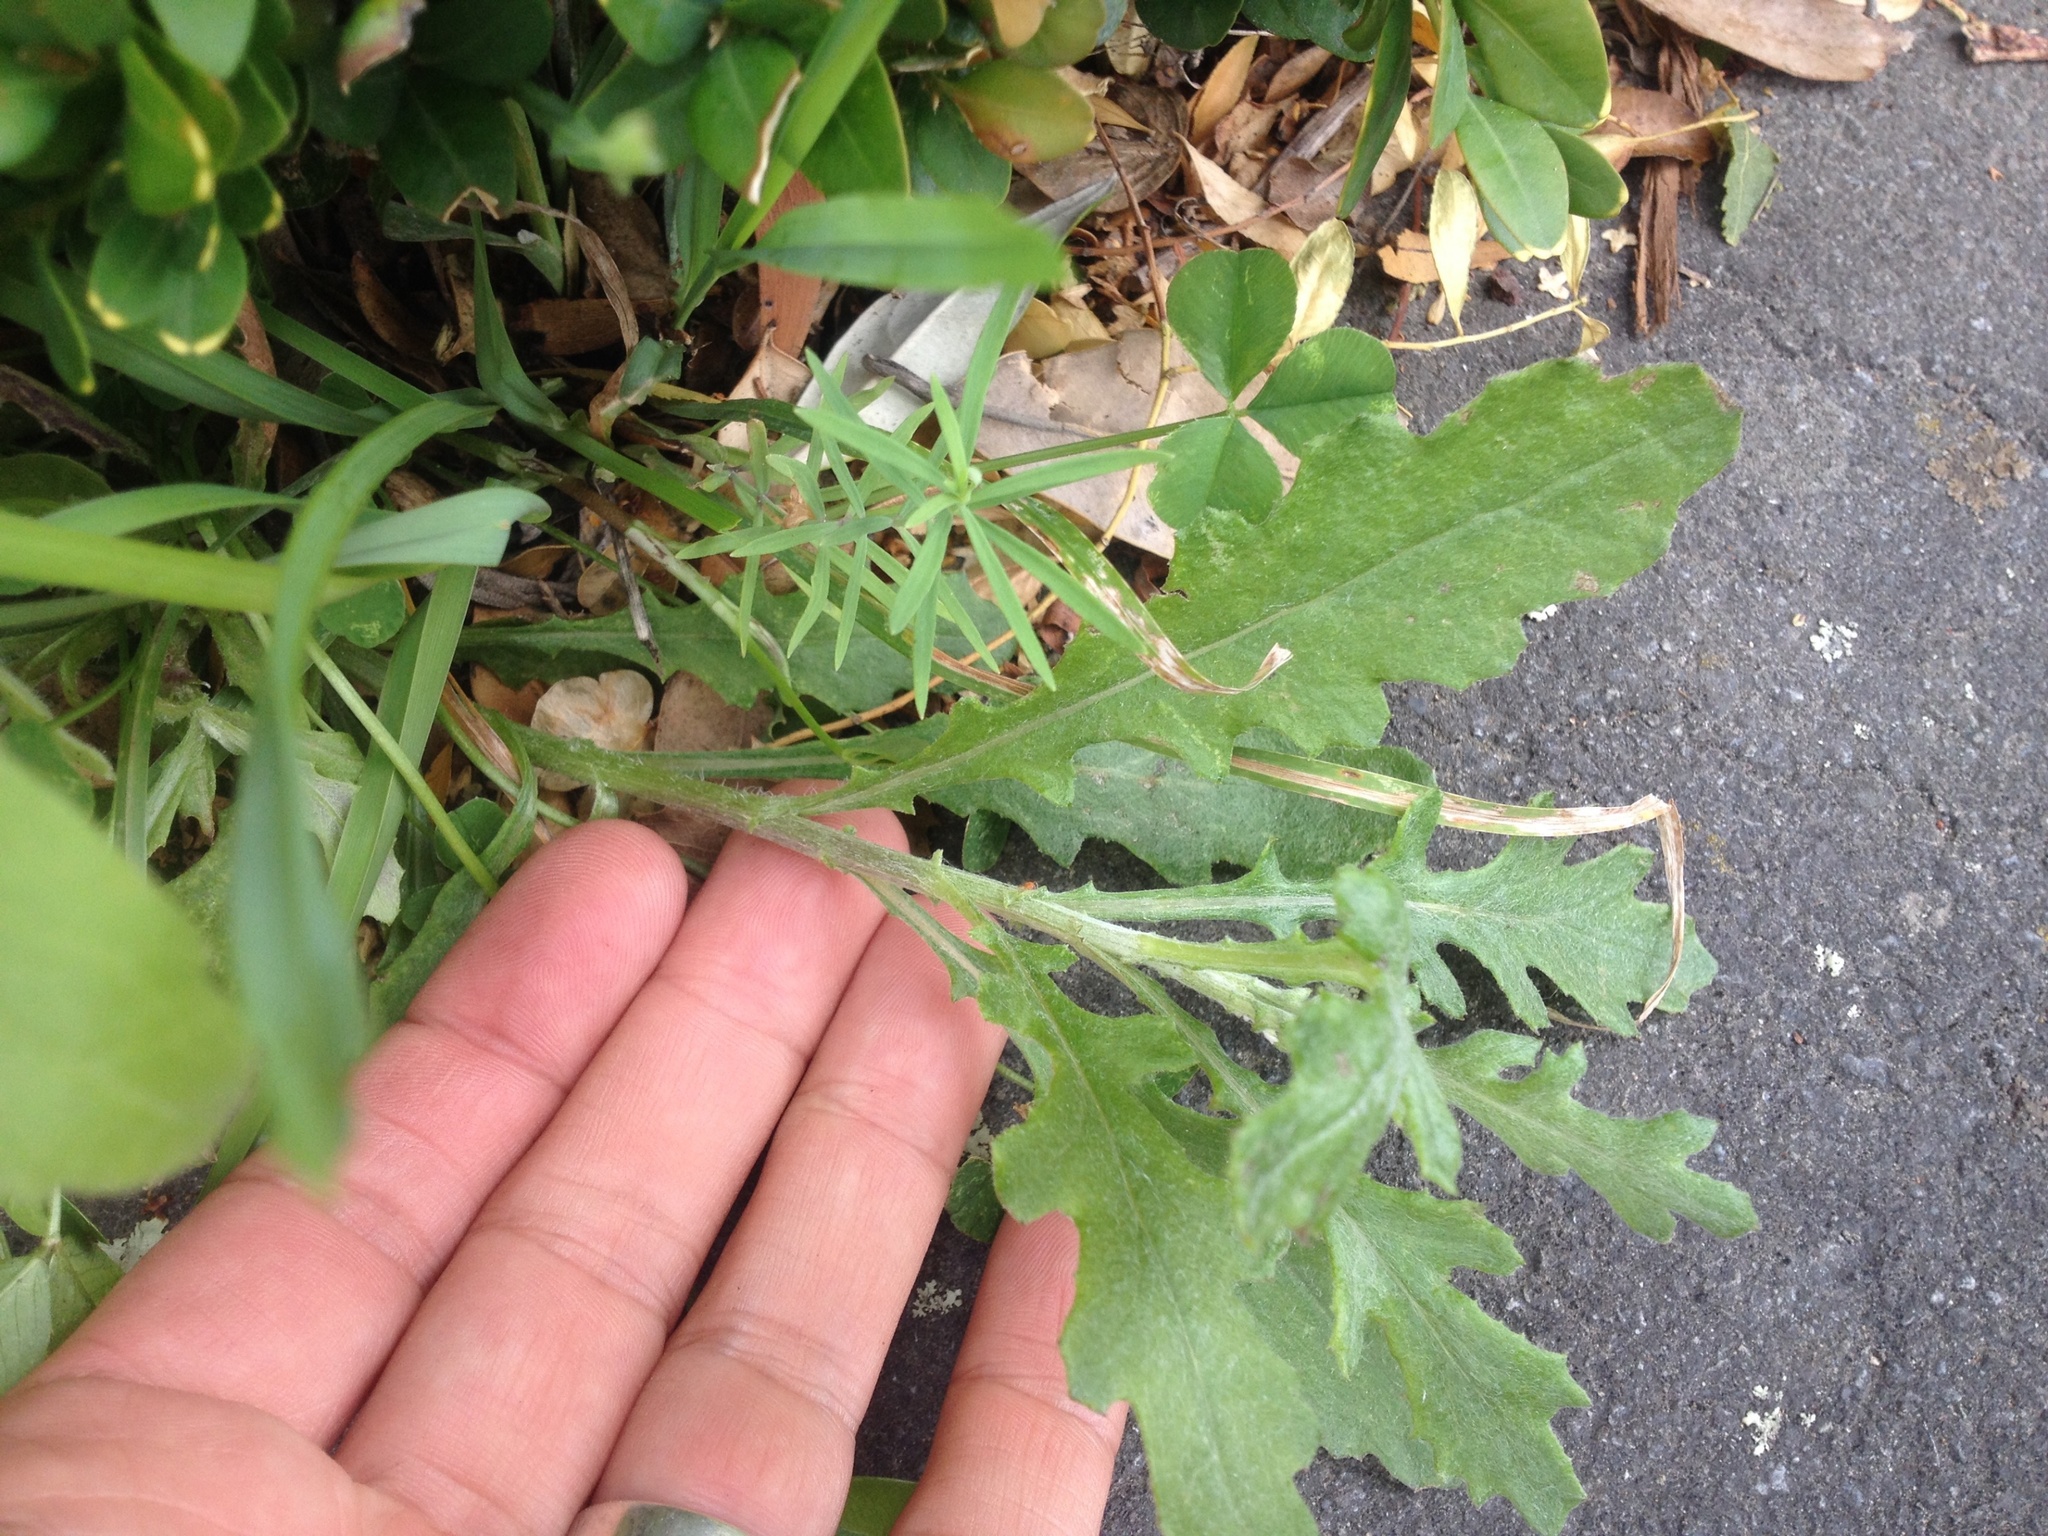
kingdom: Plantae
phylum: Tracheophyta
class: Magnoliopsida
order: Asterales
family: Asteraceae
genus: Senecio
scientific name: Senecio glomeratus
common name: Cutleaf burnweed
